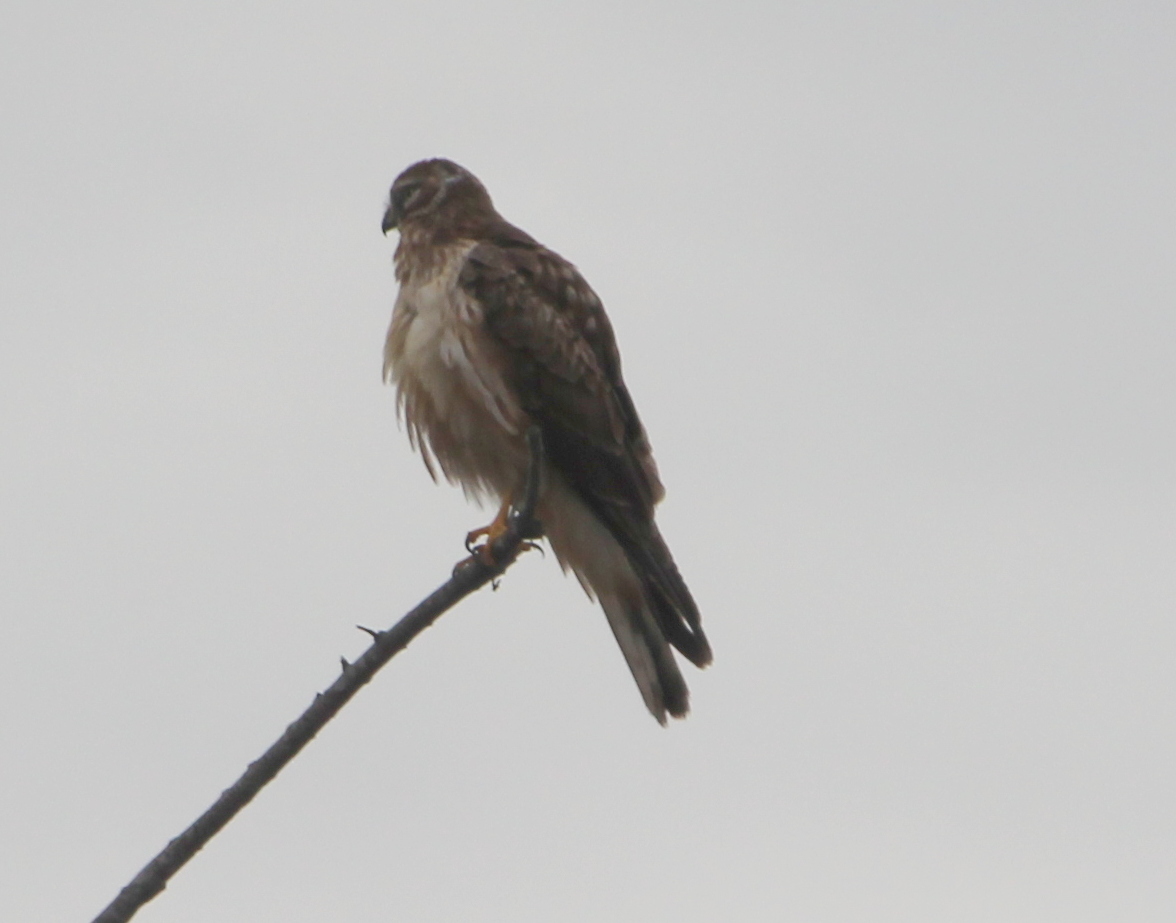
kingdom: Animalia
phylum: Chordata
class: Aves
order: Accipitriformes
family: Accipitridae
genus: Circus
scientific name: Circus cyaneus
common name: Hen harrier
